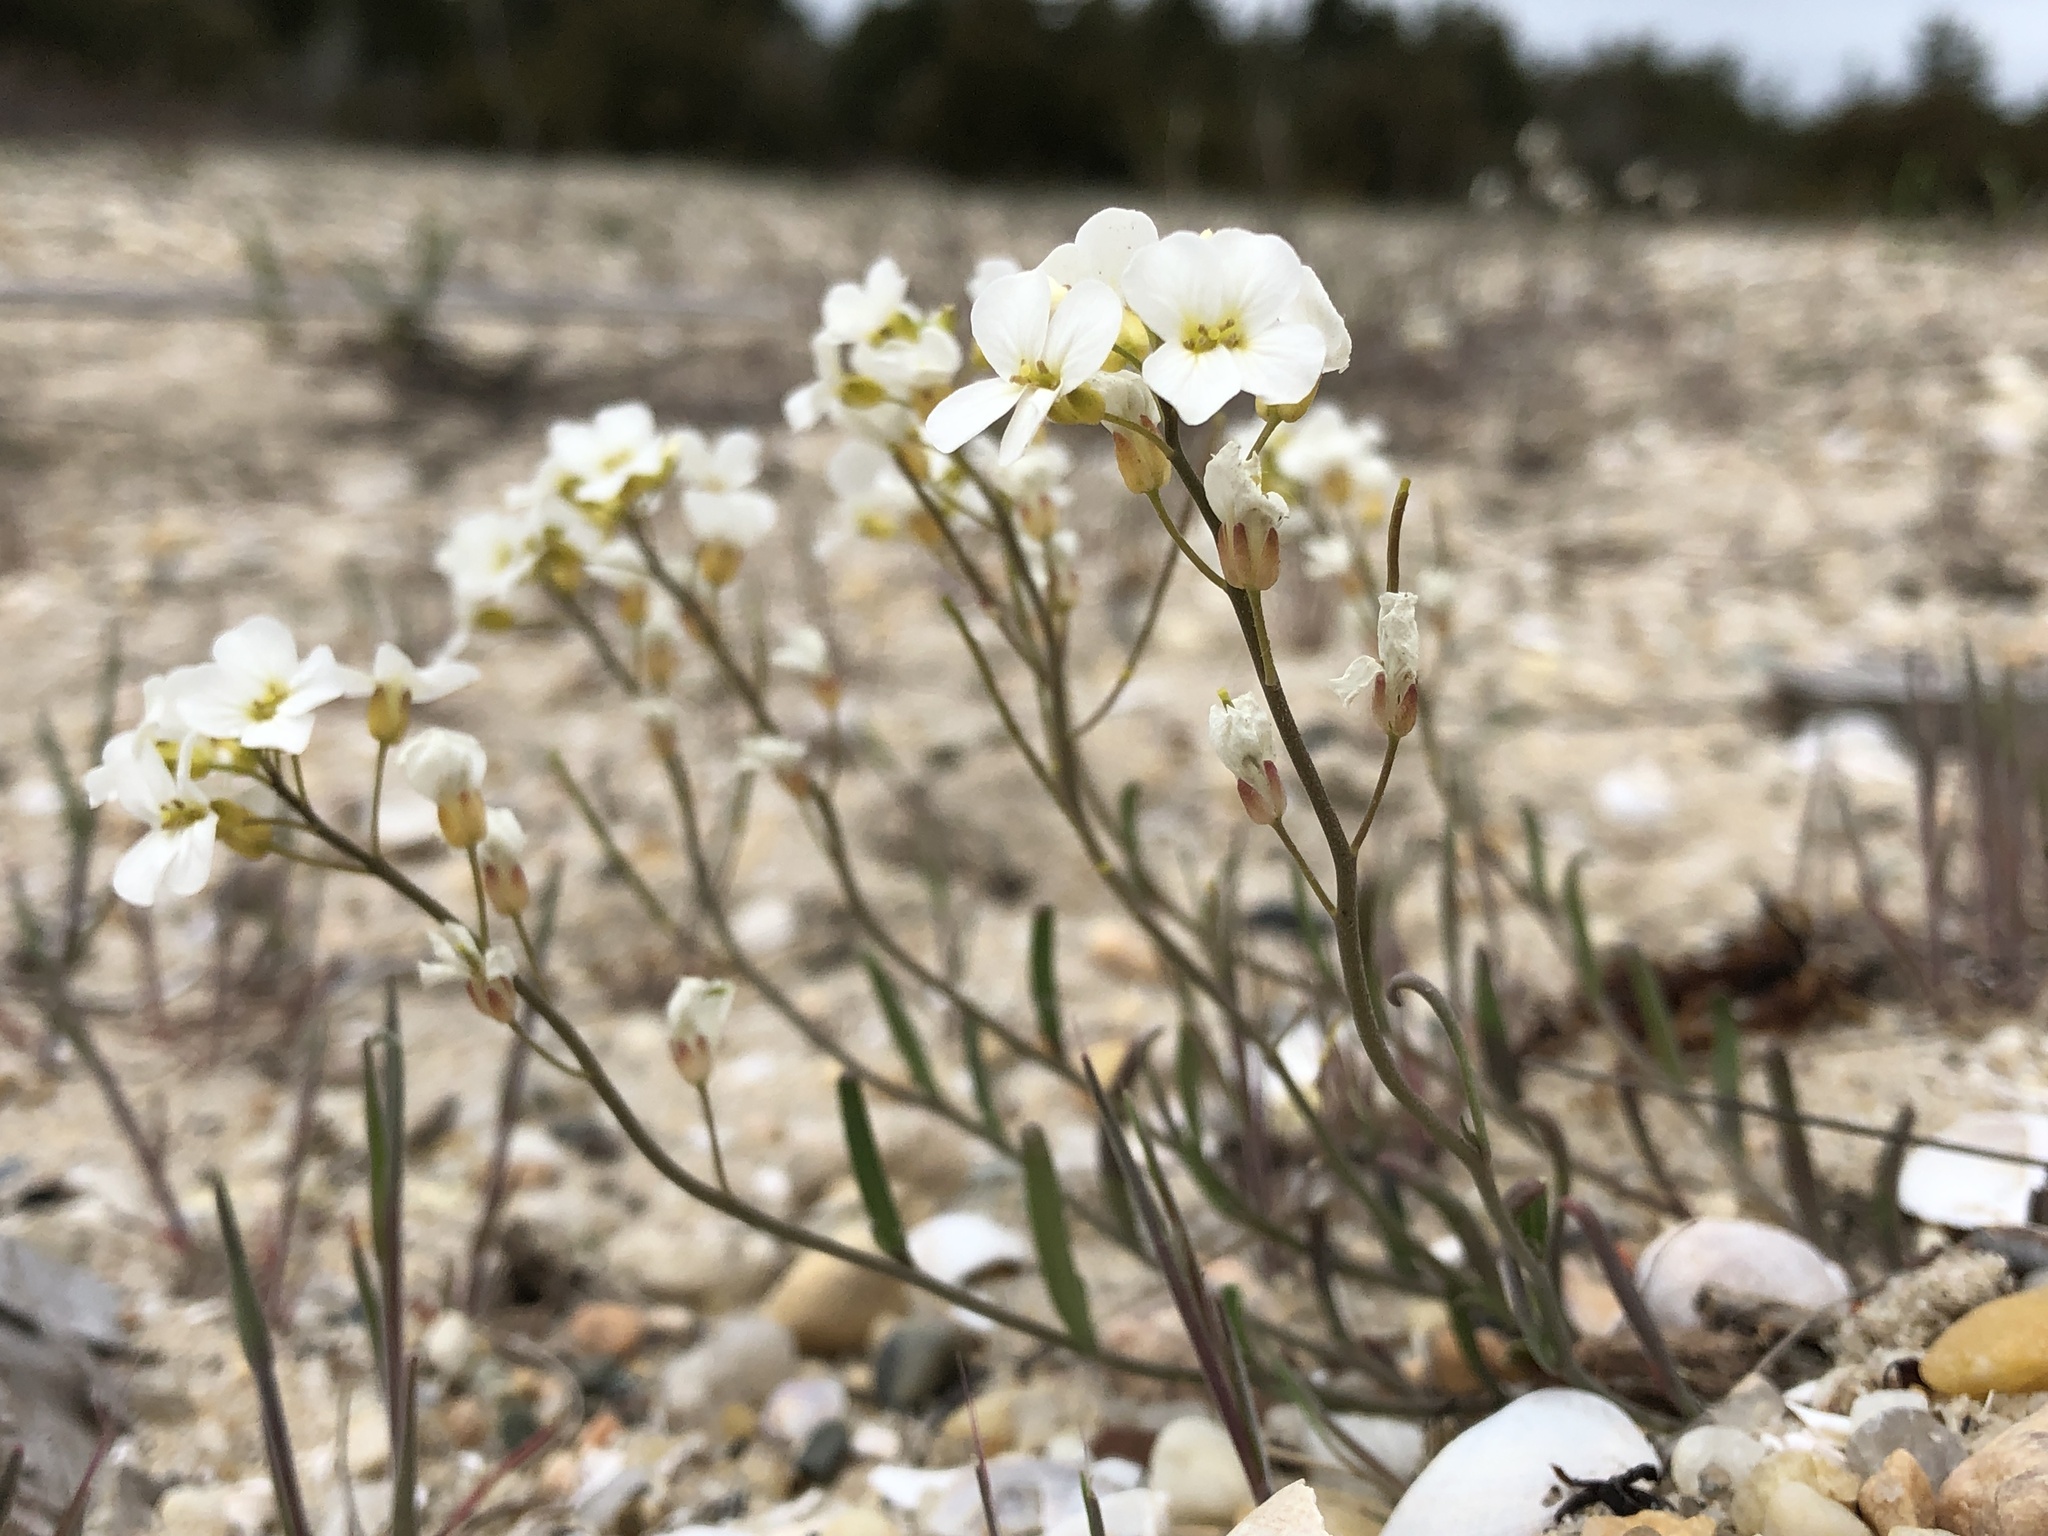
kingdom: Plantae
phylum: Tracheophyta
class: Magnoliopsida
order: Brassicales
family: Brassicaceae
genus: Arabidopsis
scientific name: Arabidopsis lyrata
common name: Lyrate rockcress
